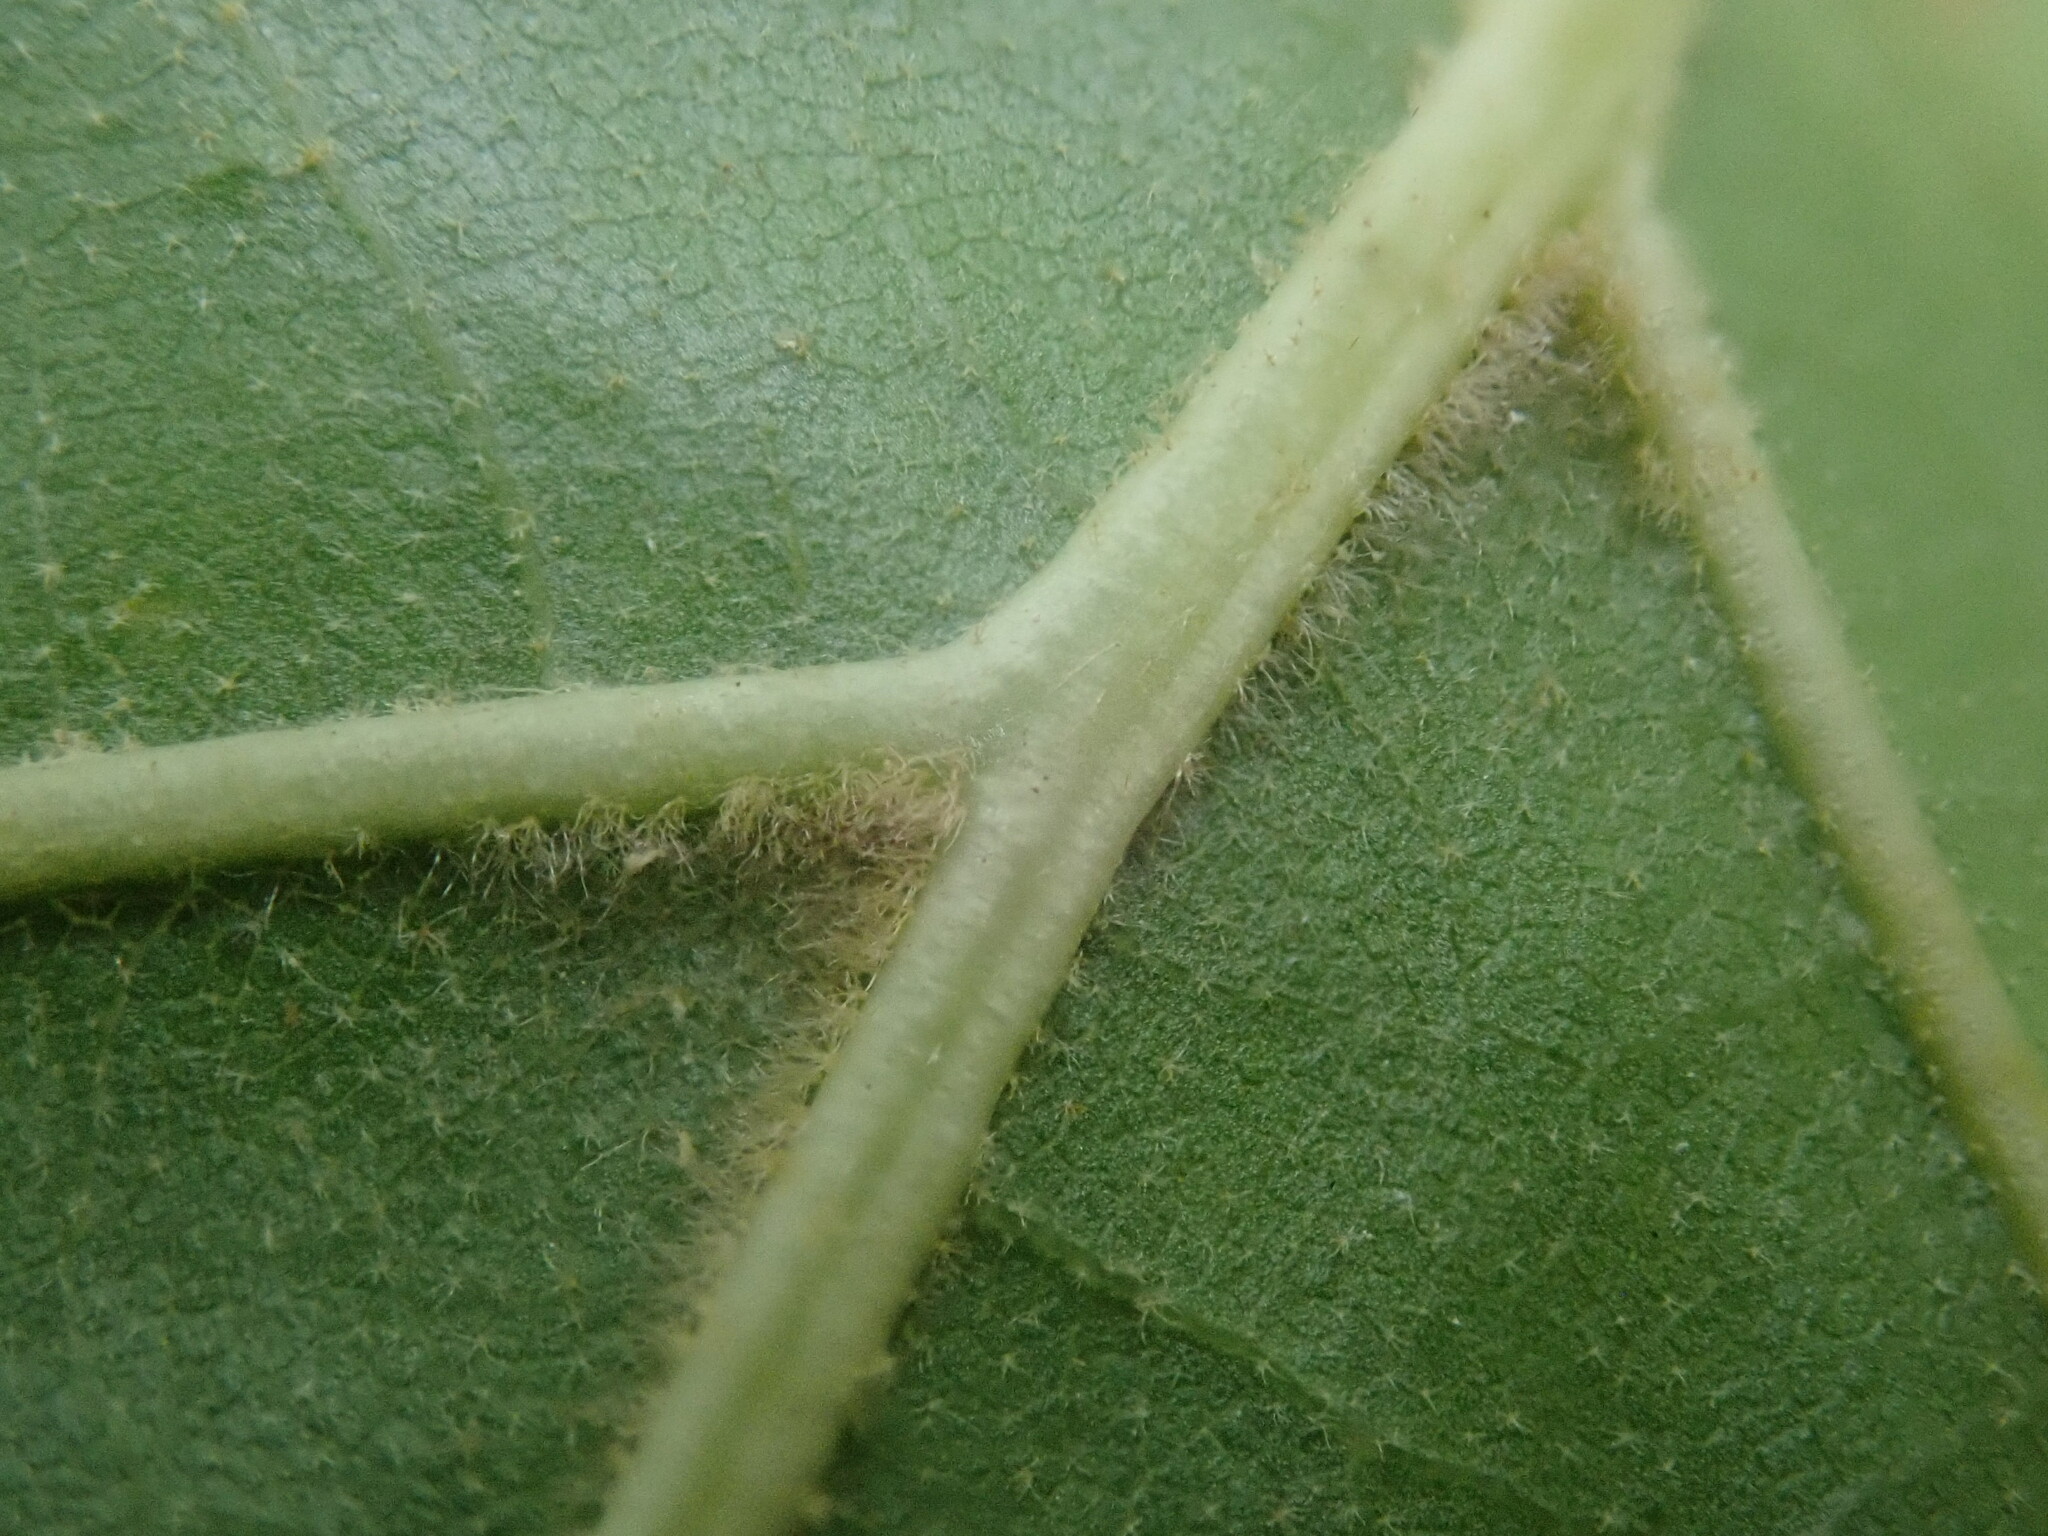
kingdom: Plantae
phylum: Tracheophyta
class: Magnoliopsida
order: Fagales
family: Fagaceae
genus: Quercus
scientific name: Quercus velutina
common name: Black oak
